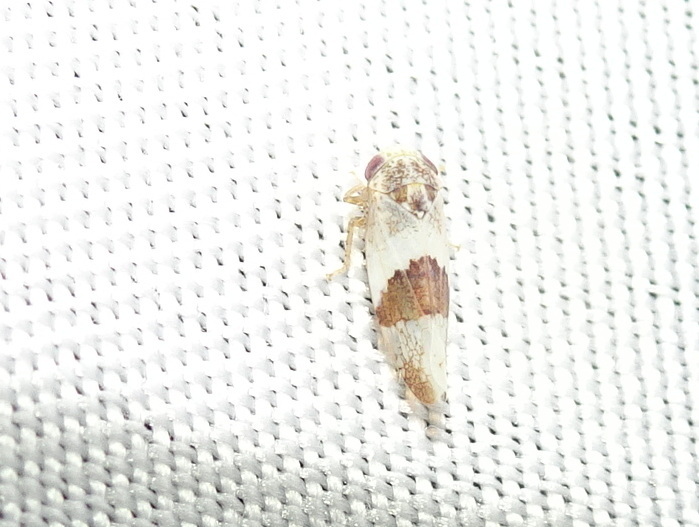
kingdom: Animalia
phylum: Arthropoda
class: Insecta
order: Hemiptera
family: Cicadellidae
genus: Norvellina
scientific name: Norvellina seminuda
